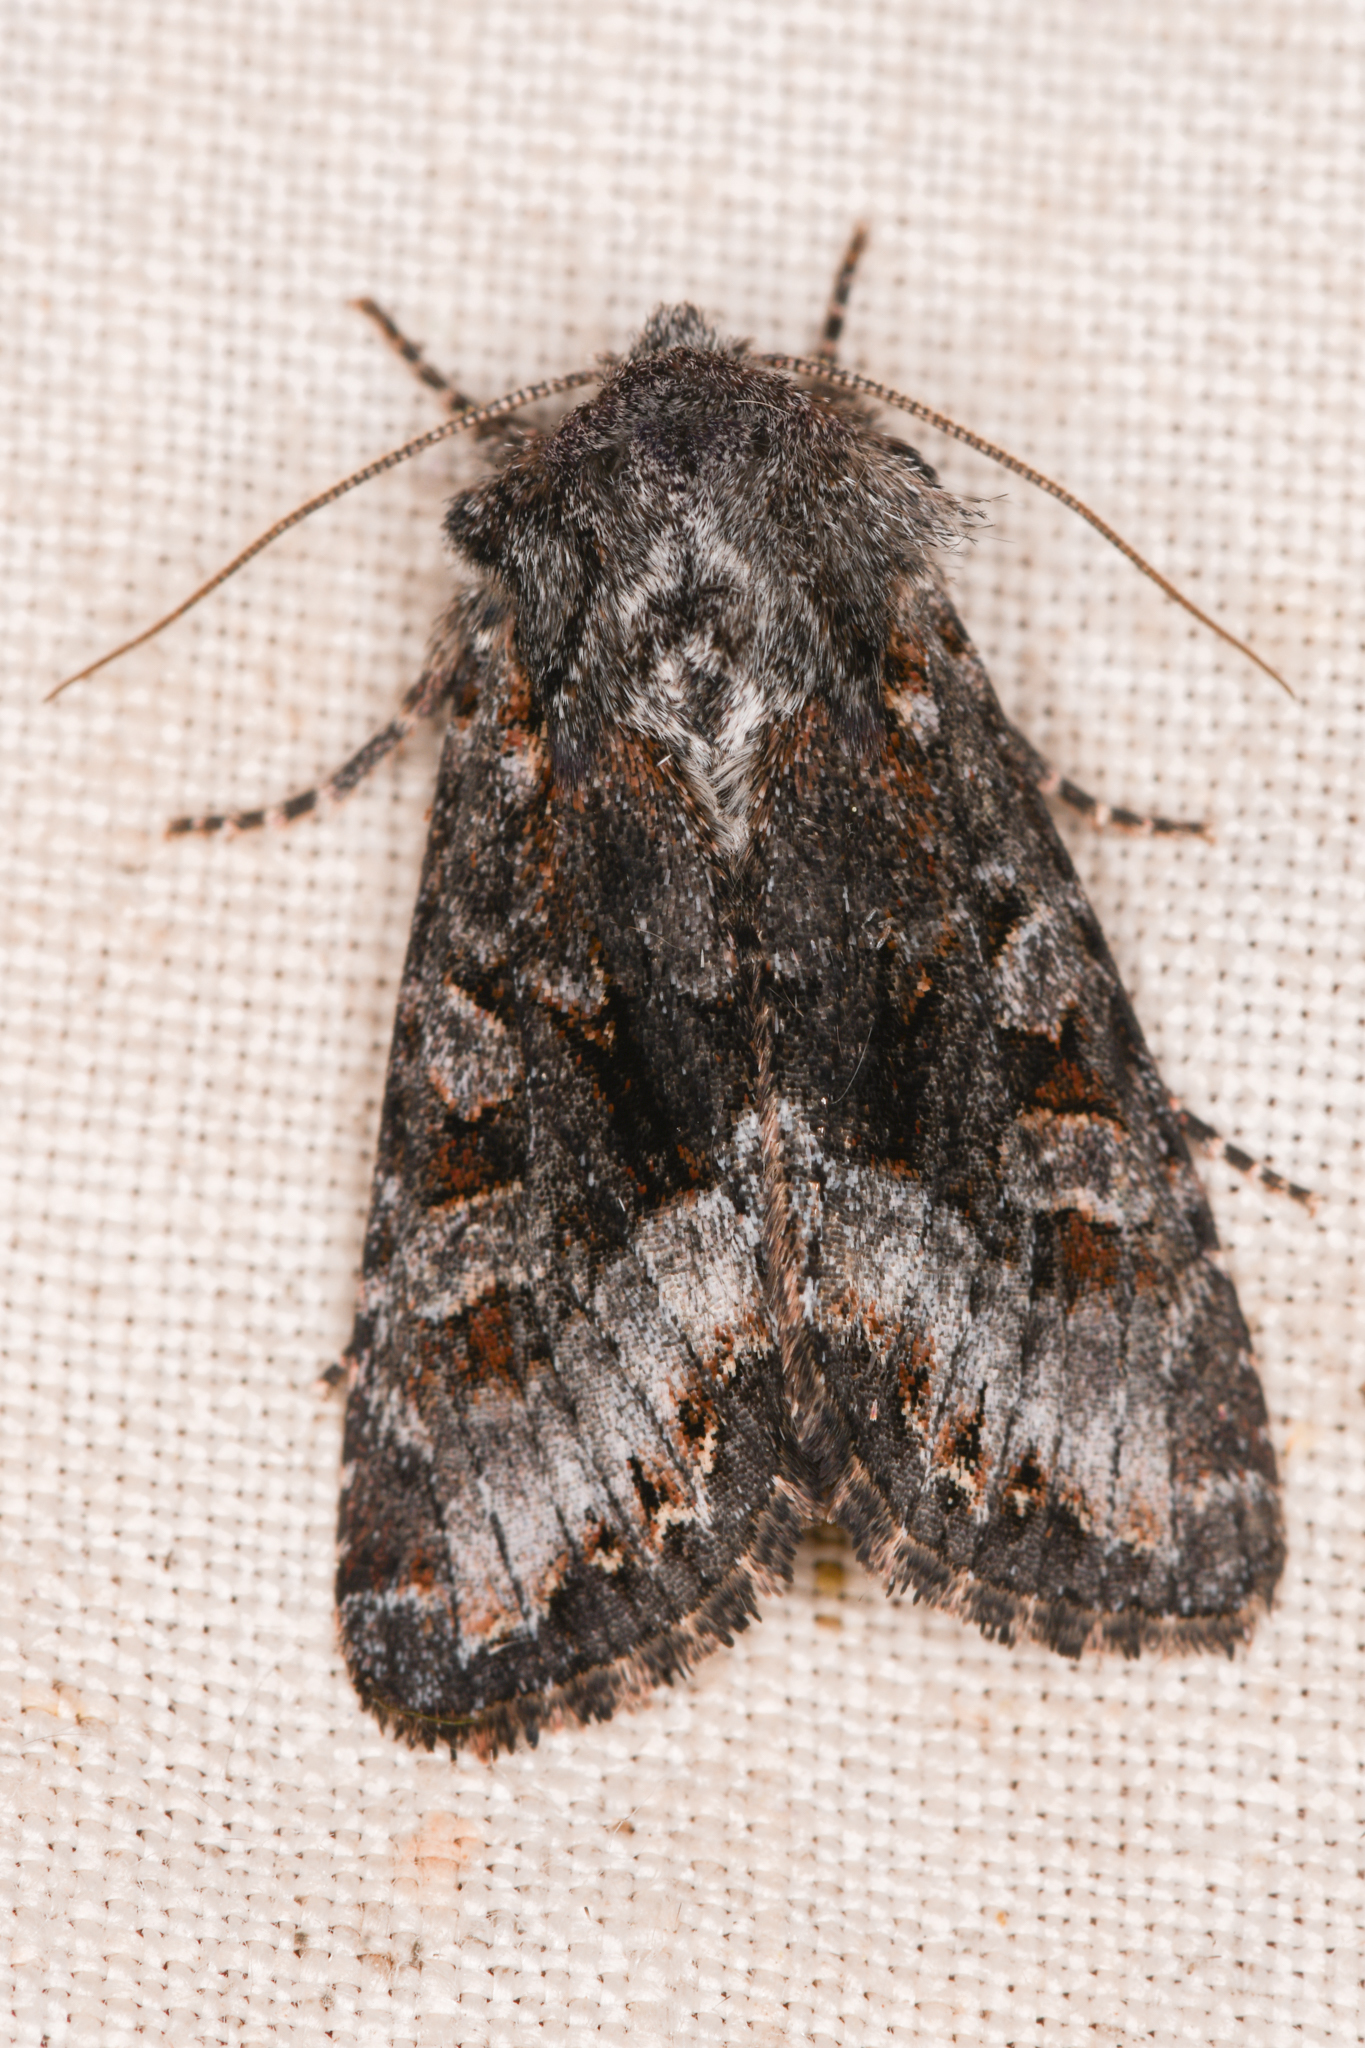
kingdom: Animalia
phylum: Arthropoda
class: Insecta
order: Lepidoptera
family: Noctuidae
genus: Papestra
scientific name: Papestra quadrata
